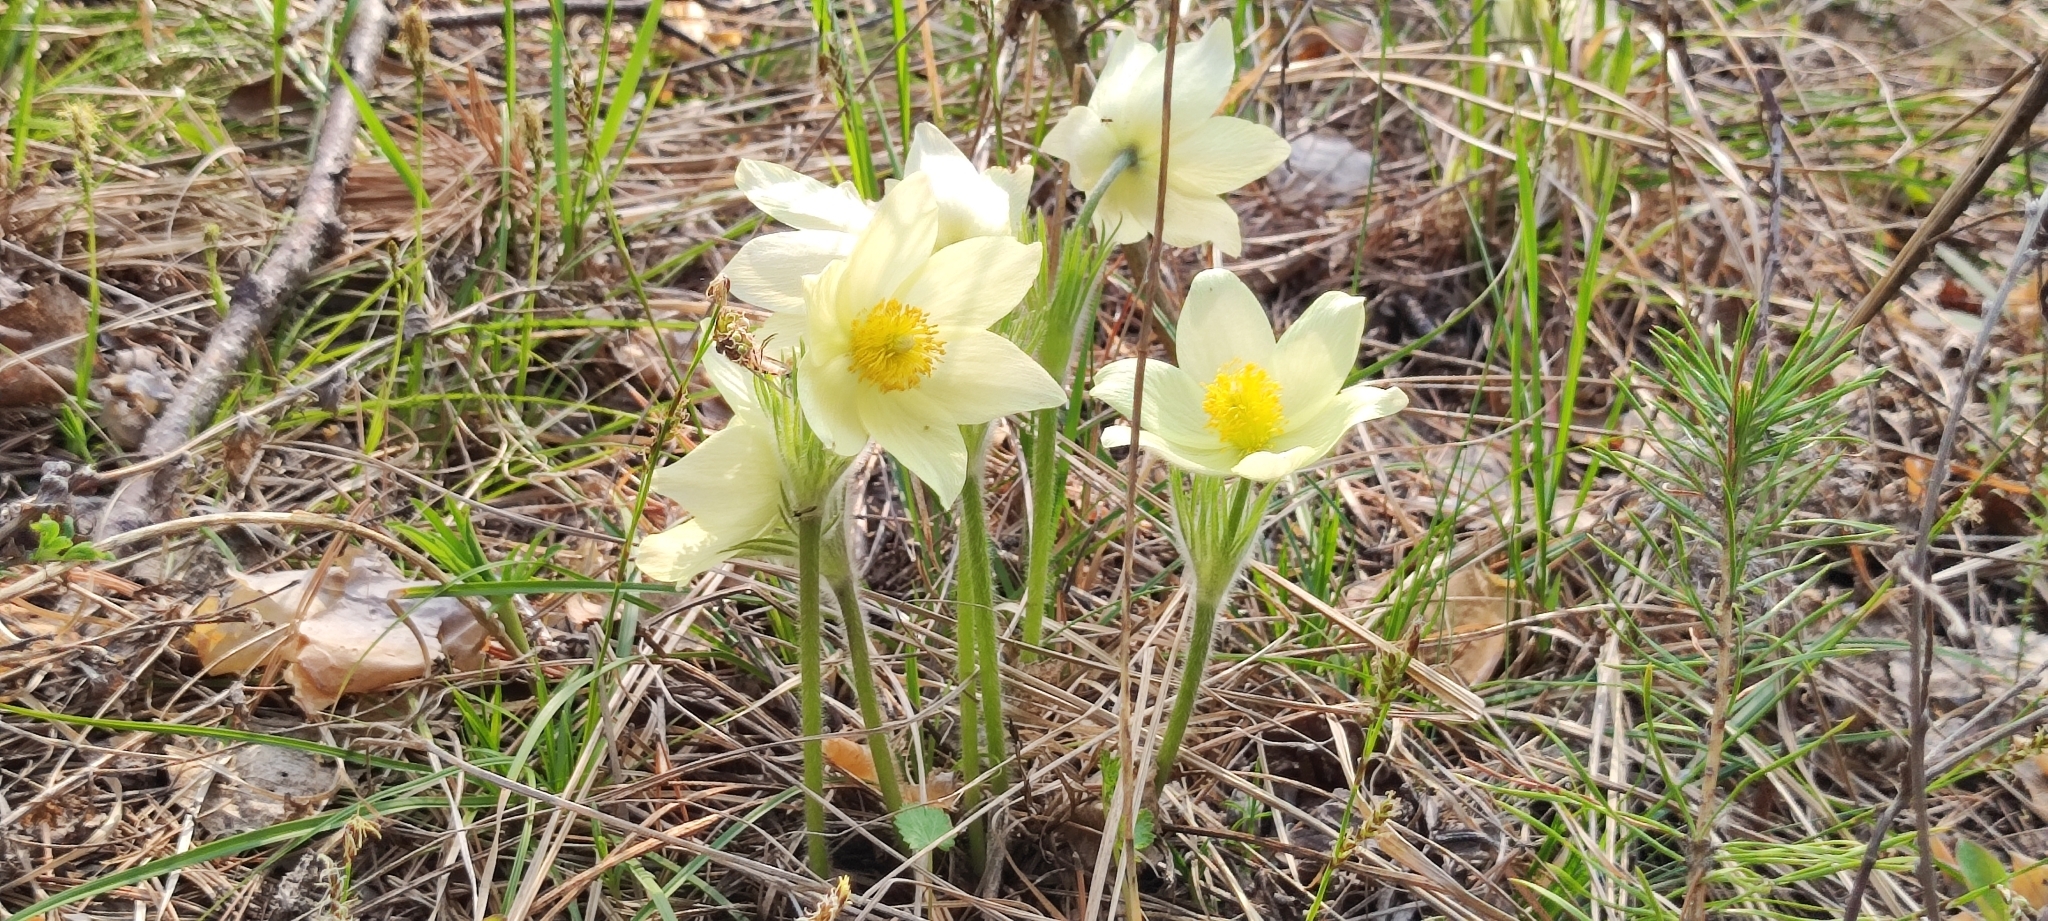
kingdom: Plantae
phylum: Tracheophyta
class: Magnoliopsida
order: Ranunculales
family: Ranunculaceae
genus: Pulsatilla
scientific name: Pulsatilla patens
